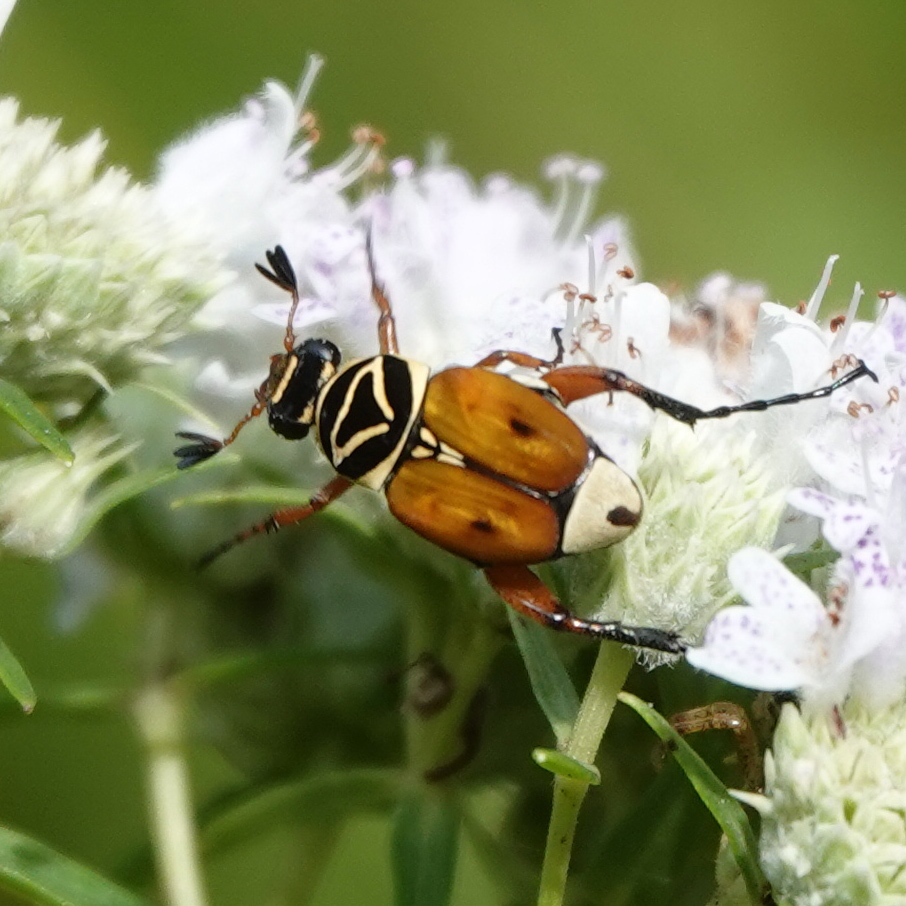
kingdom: Animalia
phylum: Arthropoda
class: Insecta
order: Coleoptera
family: Scarabaeidae
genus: Trigonopeltastes
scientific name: Trigonopeltastes delta
